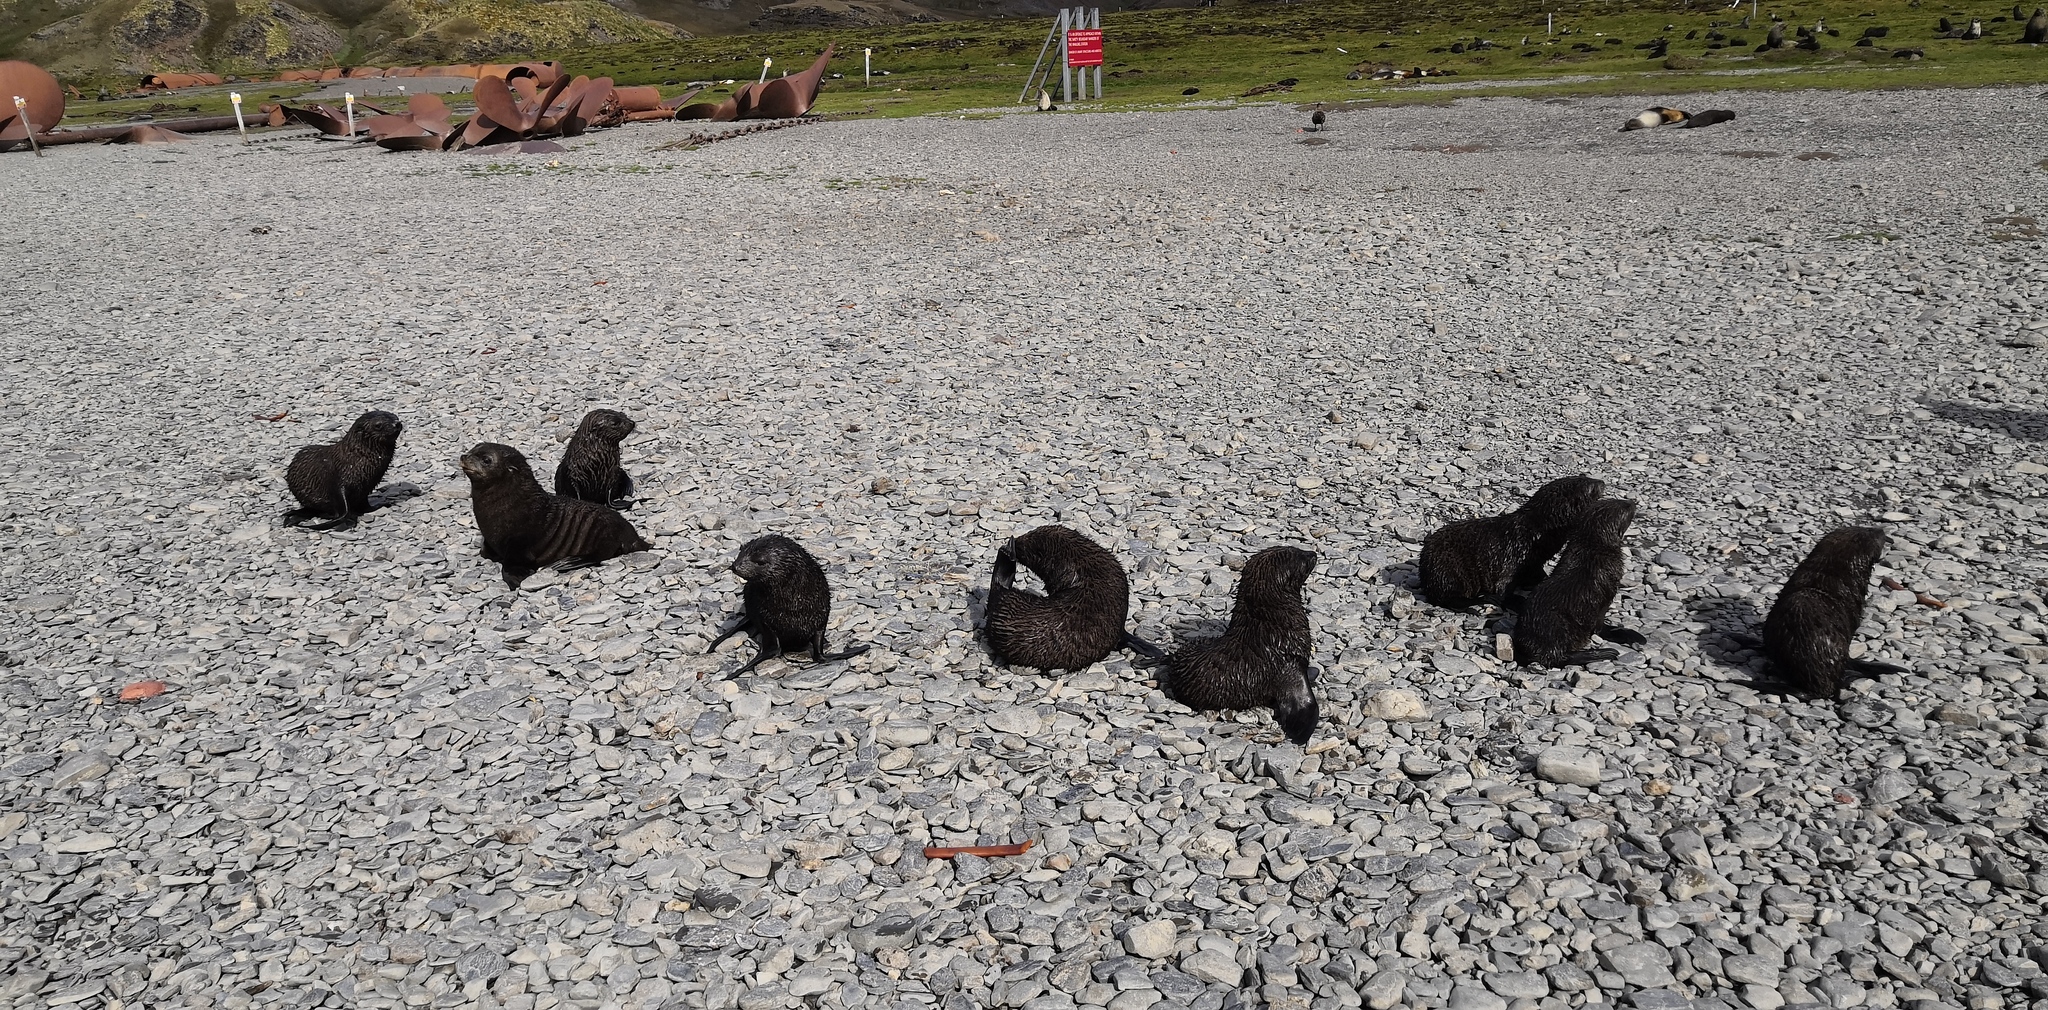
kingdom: Animalia
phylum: Chordata
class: Mammalia
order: Carnivora
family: Otariidae
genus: Arctocephalus
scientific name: Arctocephalus gazella
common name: Antarctic fur seal
